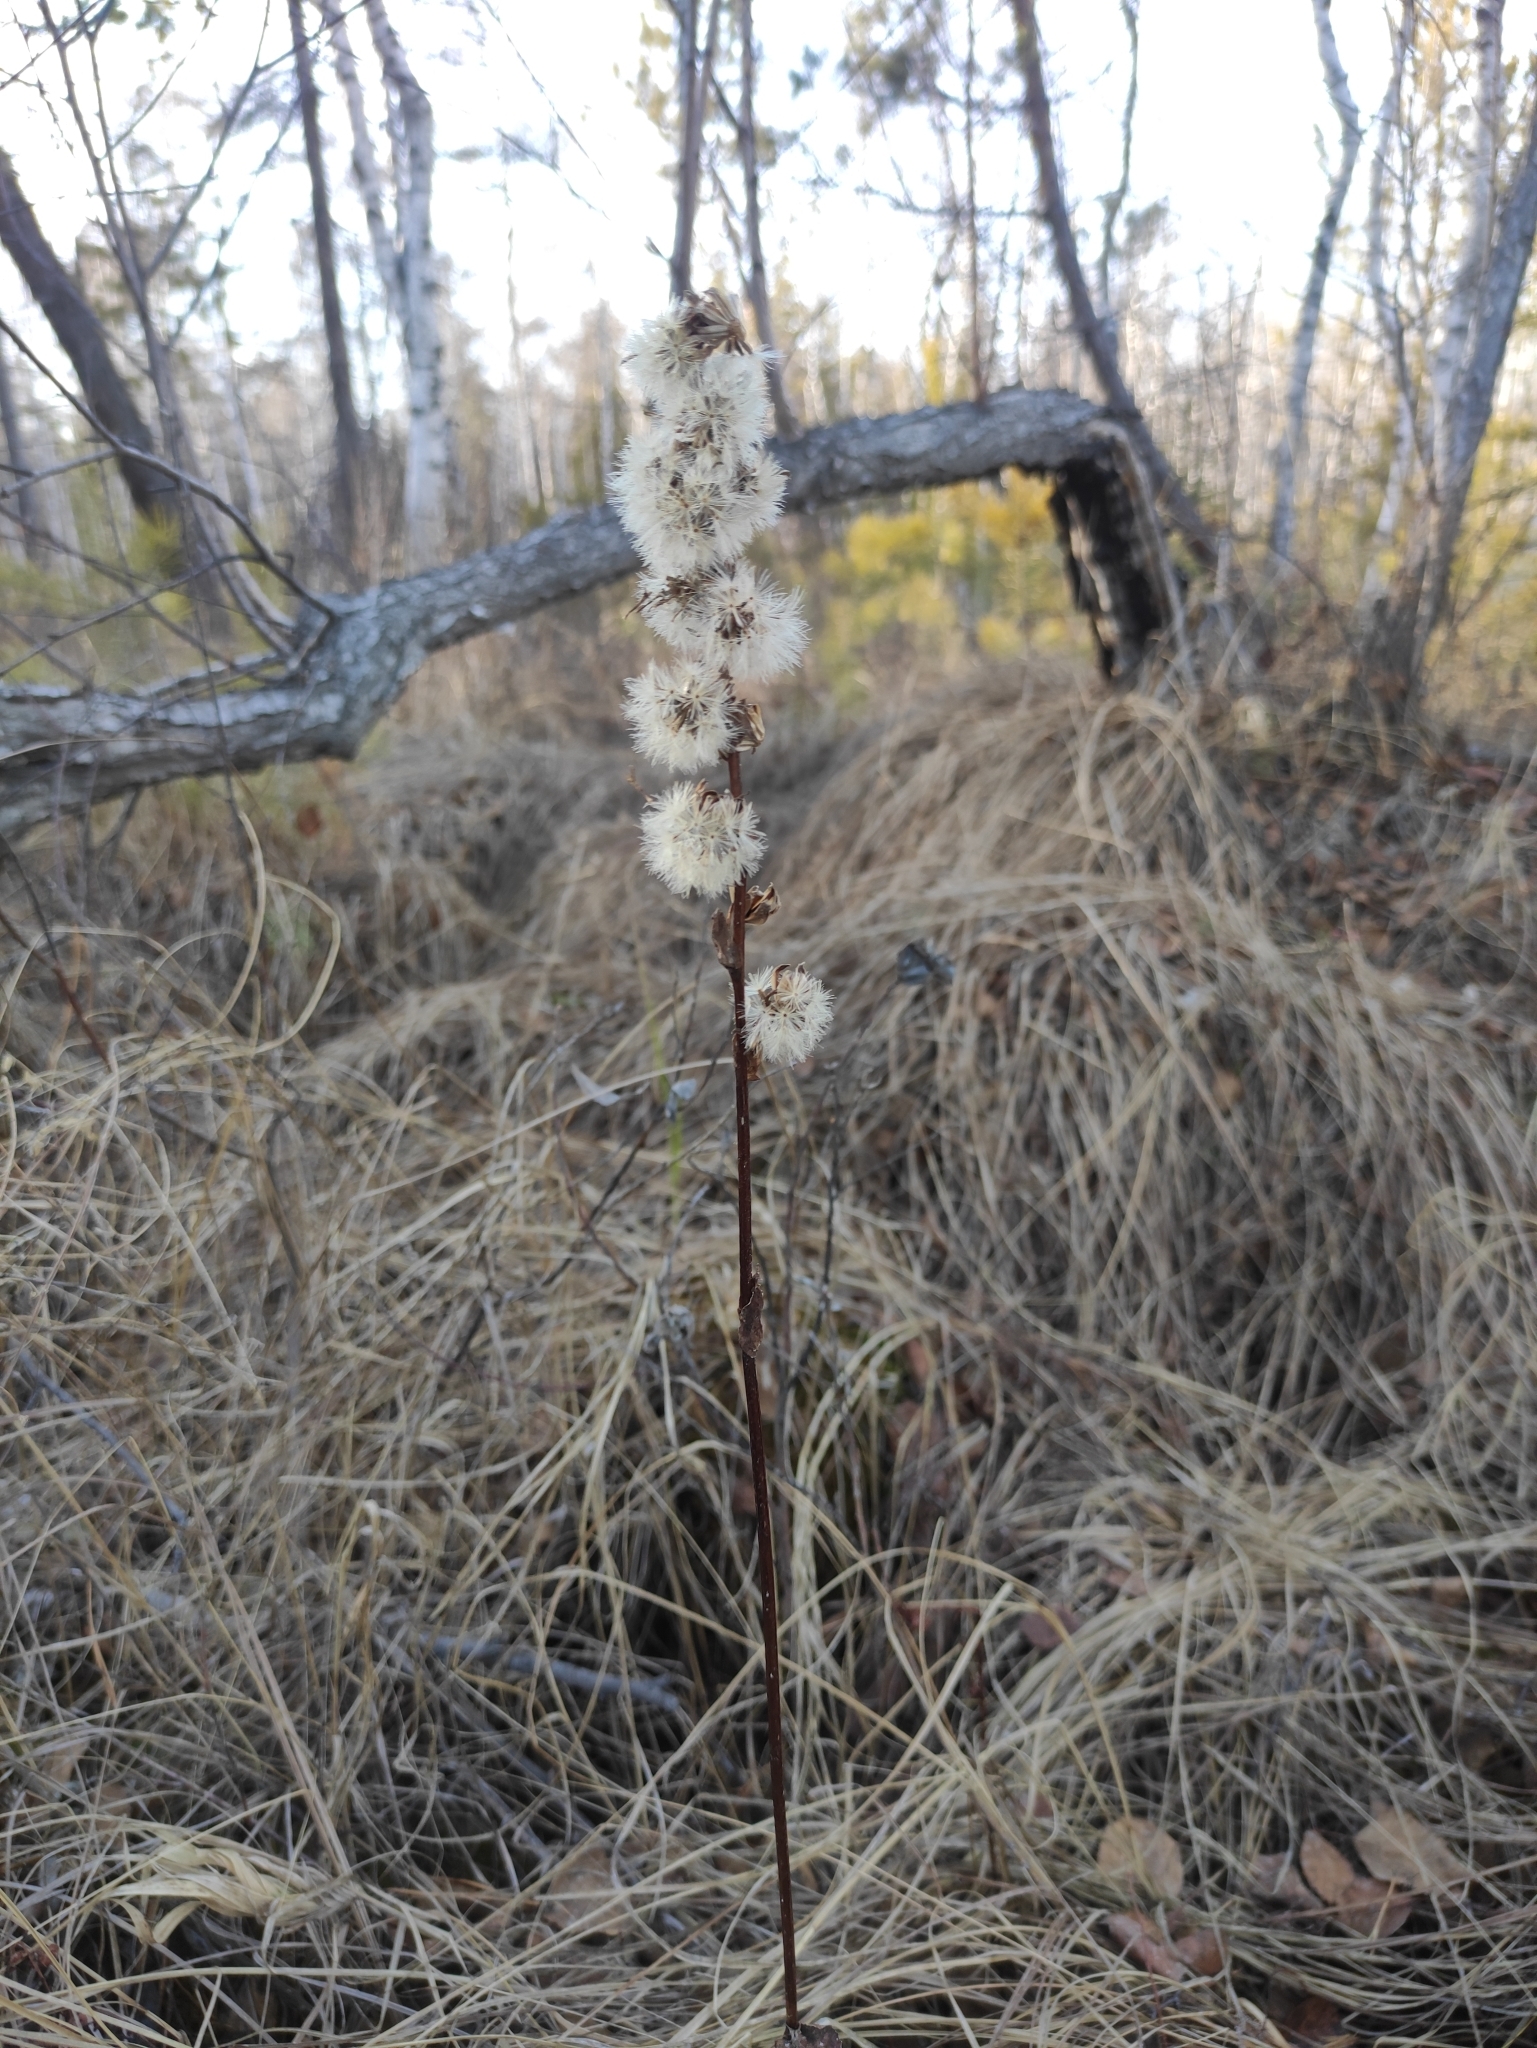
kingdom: Plantae
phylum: Tracheophyta
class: Magnoliopsida
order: Asterales
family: Asteraceae
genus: Ligularia
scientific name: Ligularia sibirica
